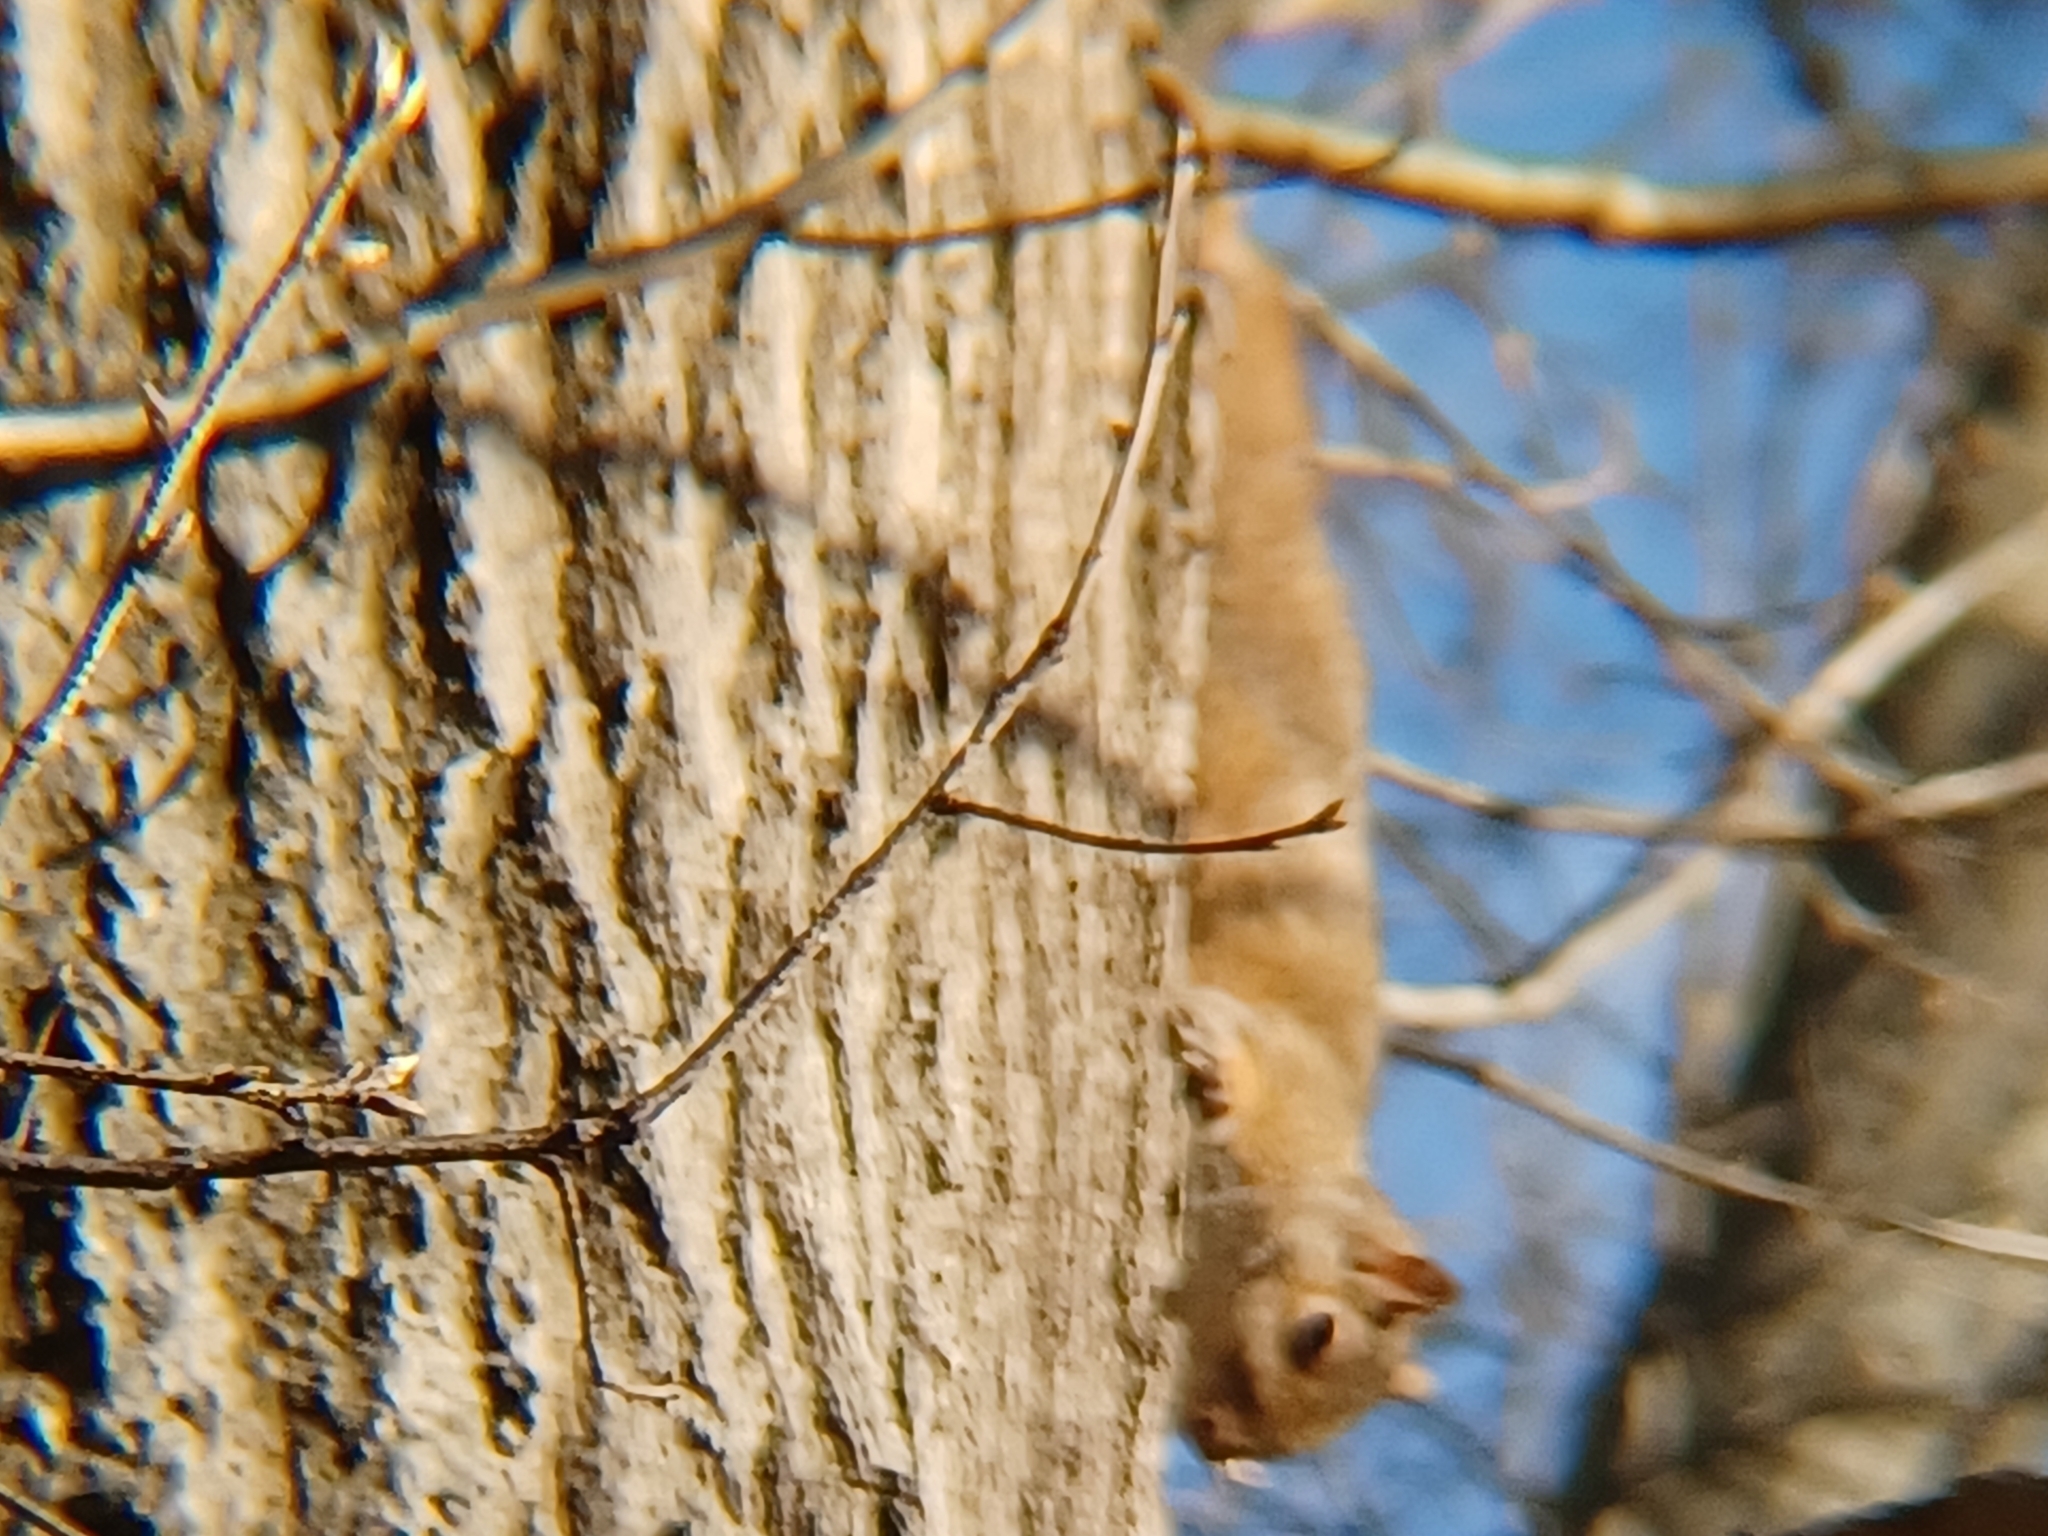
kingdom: Animalia
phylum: Chordata
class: Mammalia
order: Rodentia
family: Sciuridae
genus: Sciurus
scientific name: Sciurus carolinensis
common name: Eastern gray squirrel
